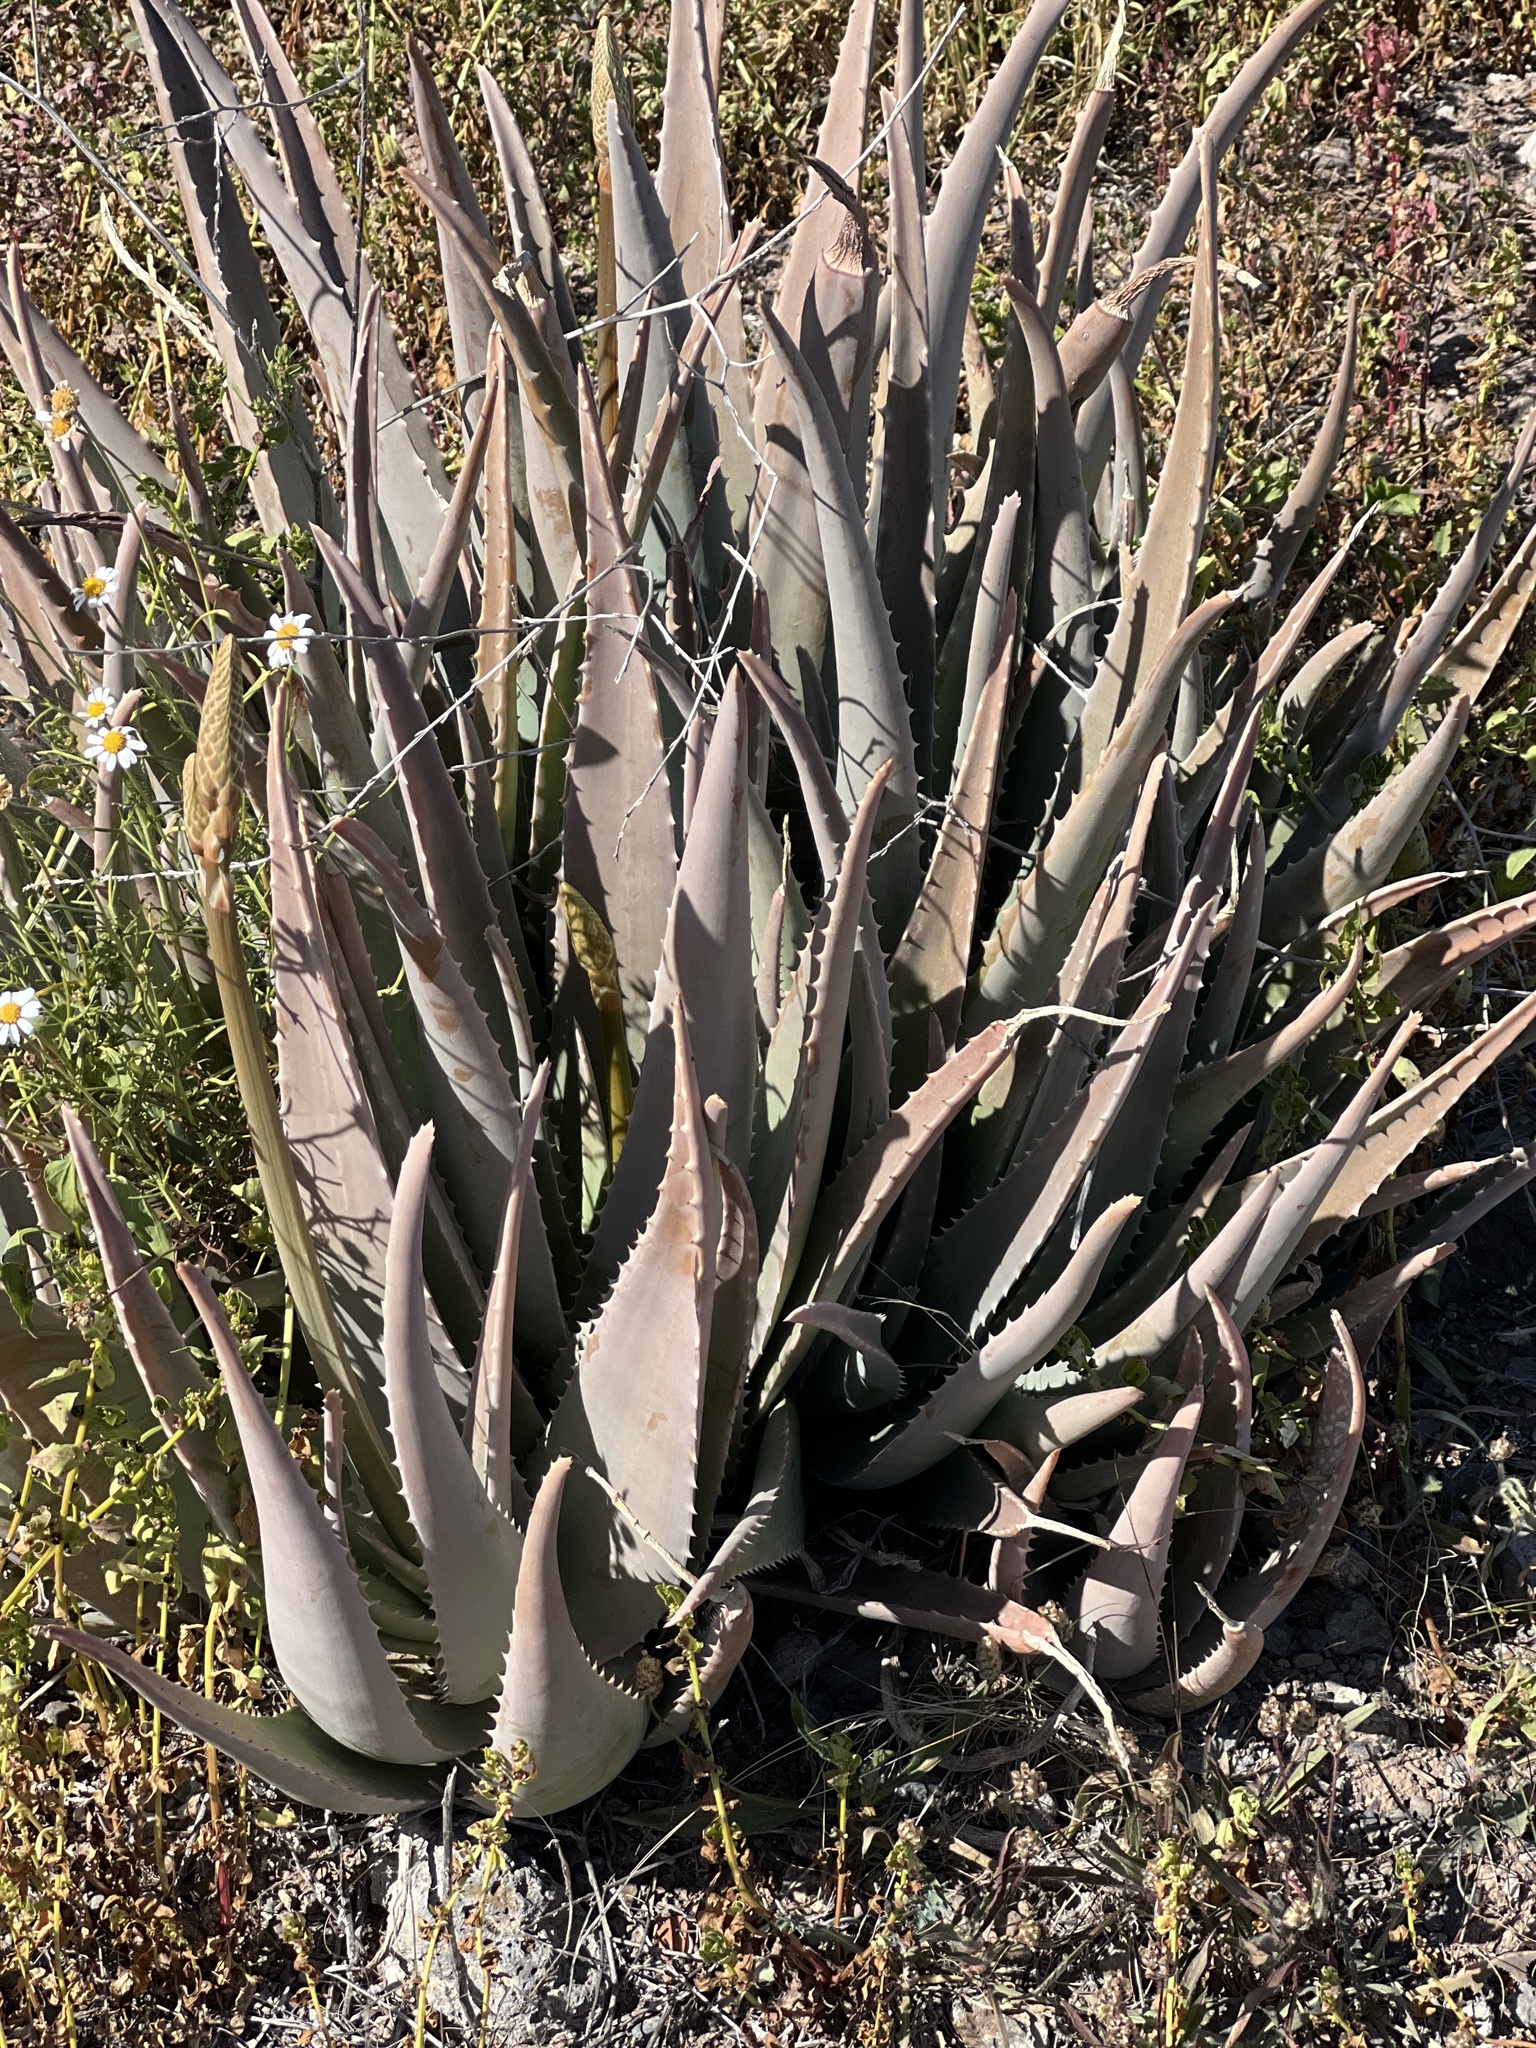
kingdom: Plantae
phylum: Tracheophyta
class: Liliopsida
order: Asparagales
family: Asphodelaceae
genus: Aloe
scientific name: Aloe vera
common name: Barbados aloe
